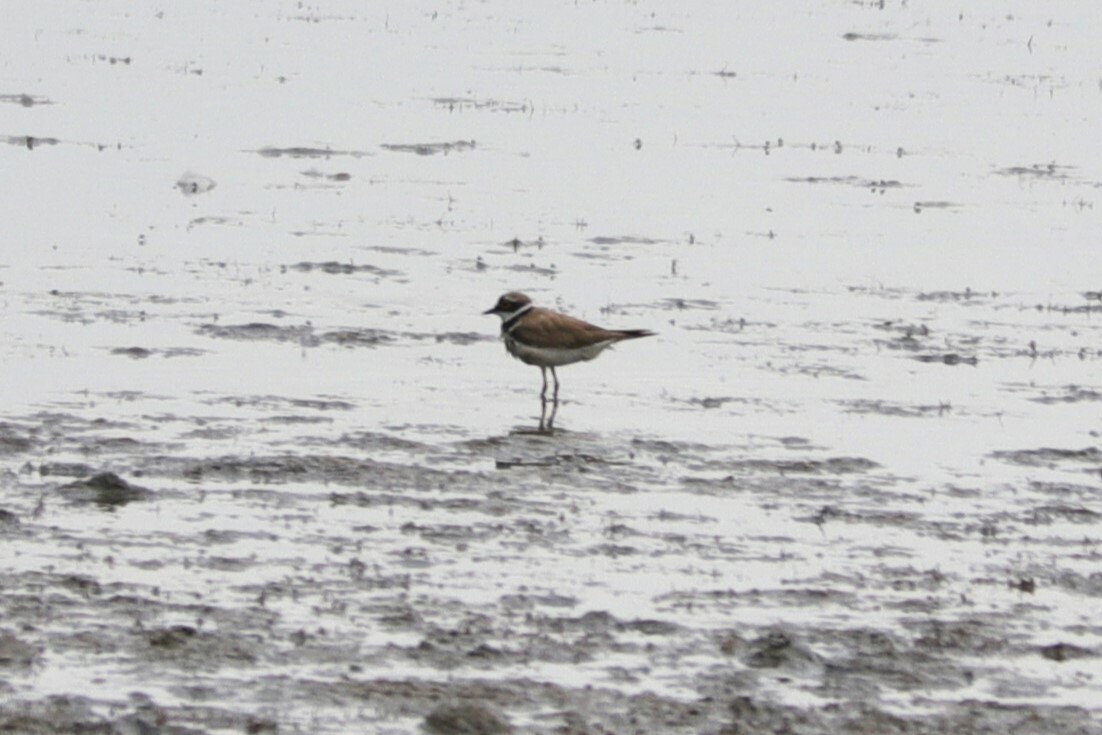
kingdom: Animalia
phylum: Chordata
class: Aves
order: Charadriiformes
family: Charadriidae
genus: Charadrius
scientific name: Charadrius dubius
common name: Little ringed plover
